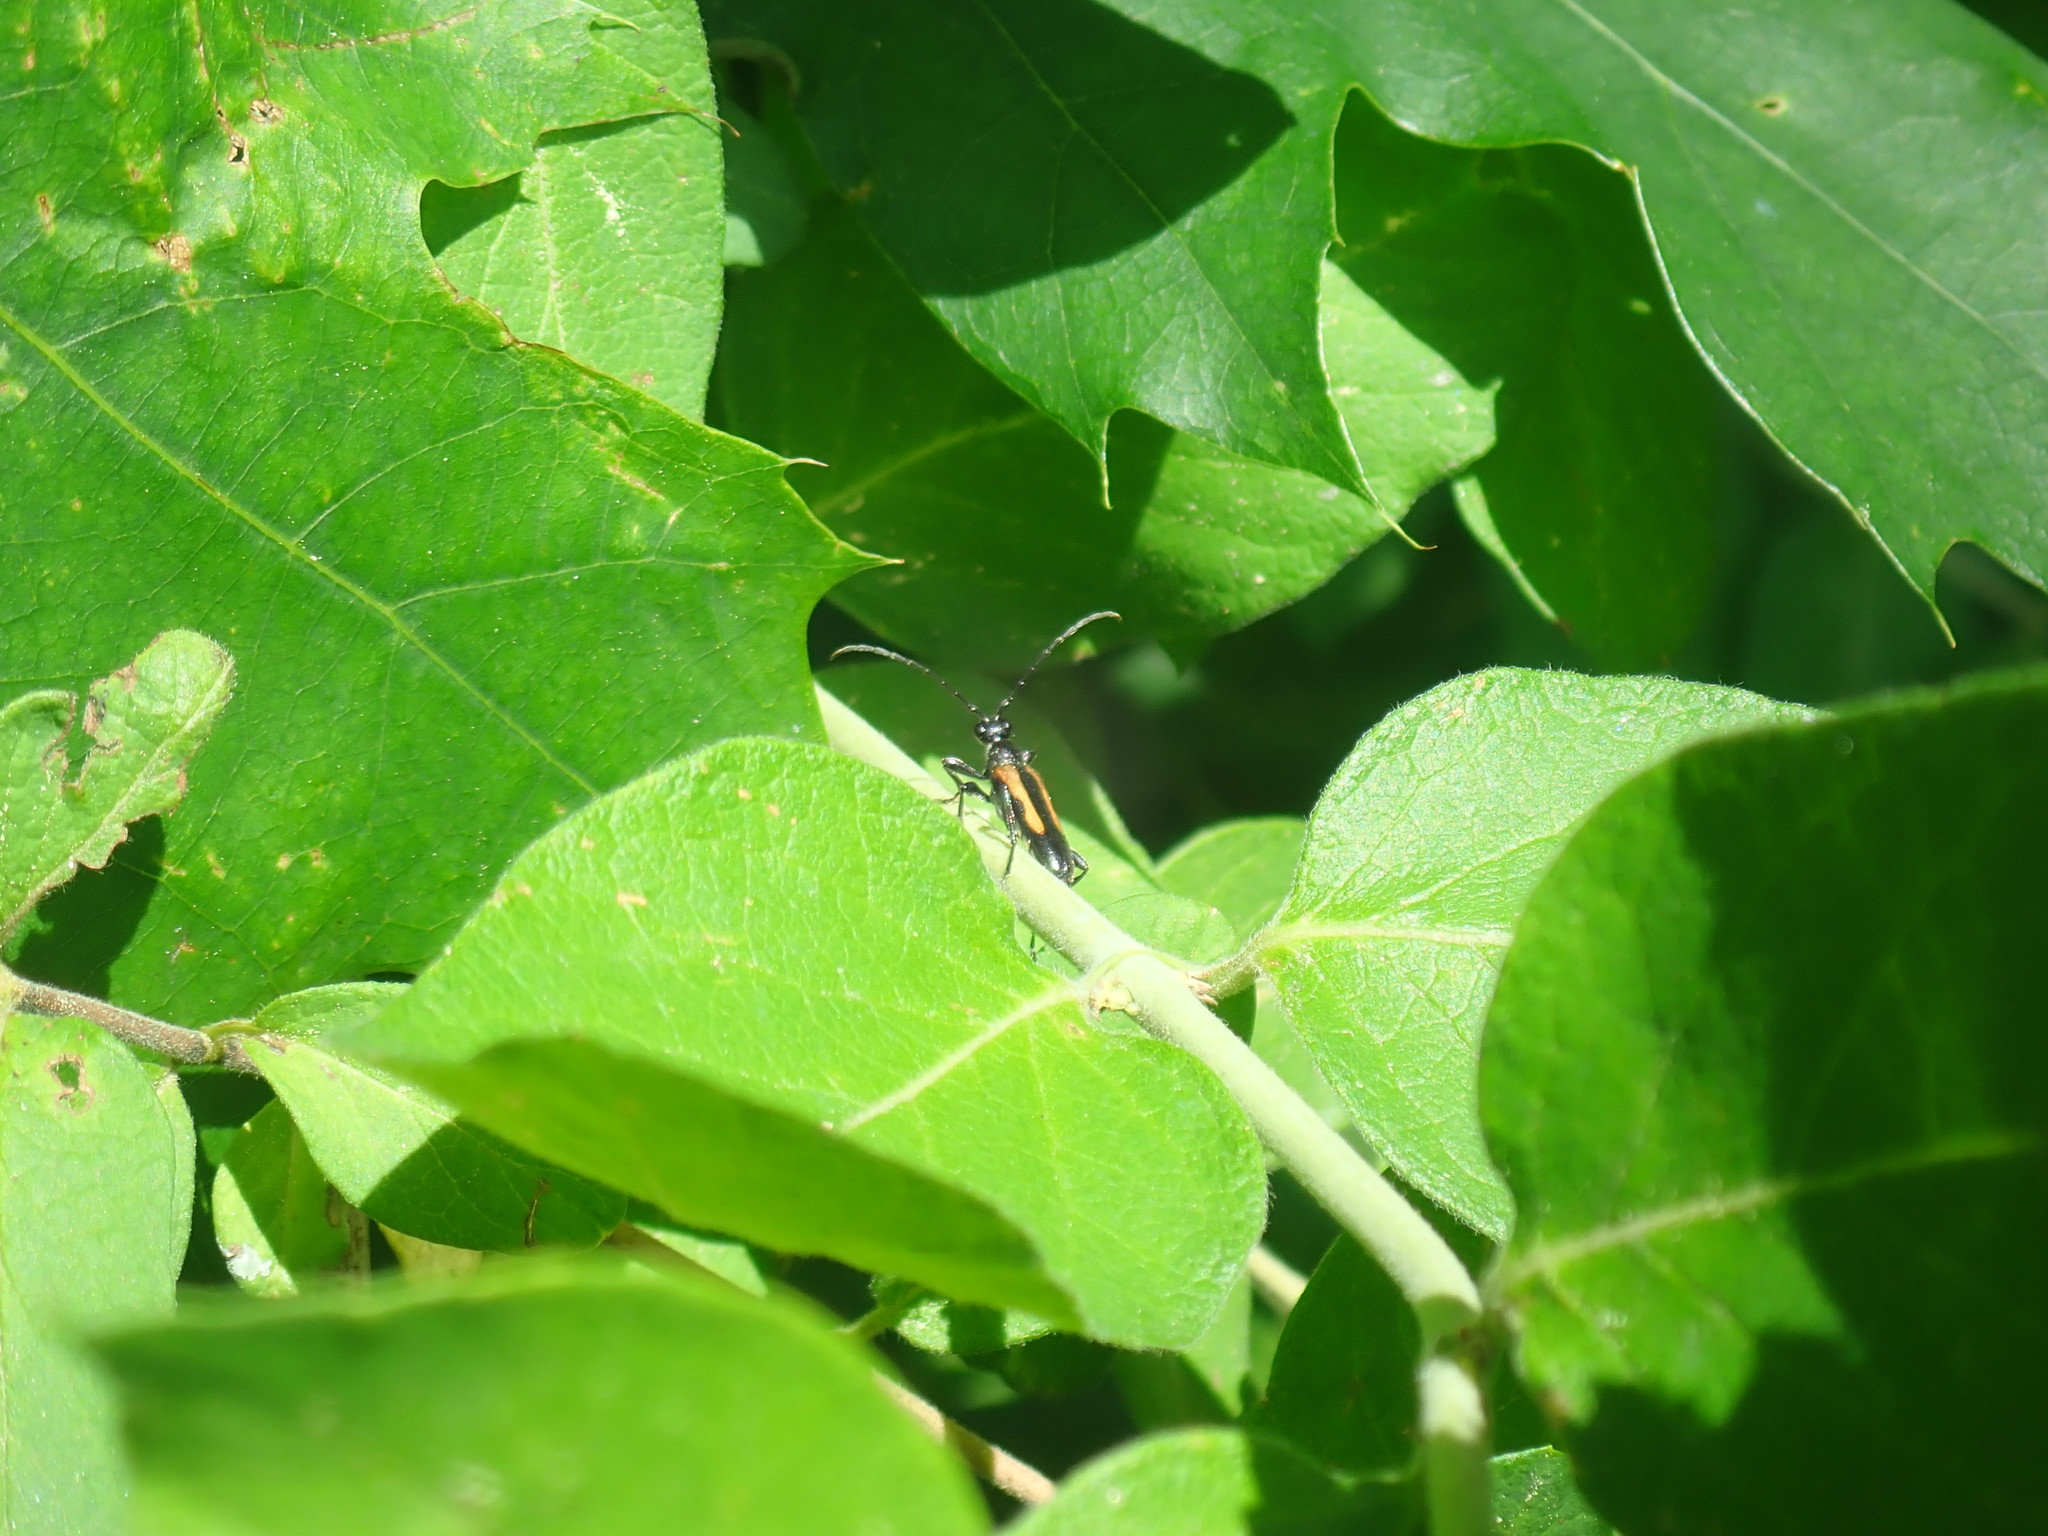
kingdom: Animalia
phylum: Arthropoda
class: Insecta
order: Coleoptera
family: Cerambycidae
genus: Strangalepta
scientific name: Strangalepta abbreviata
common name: Strangalepta flower longhorn beetle
